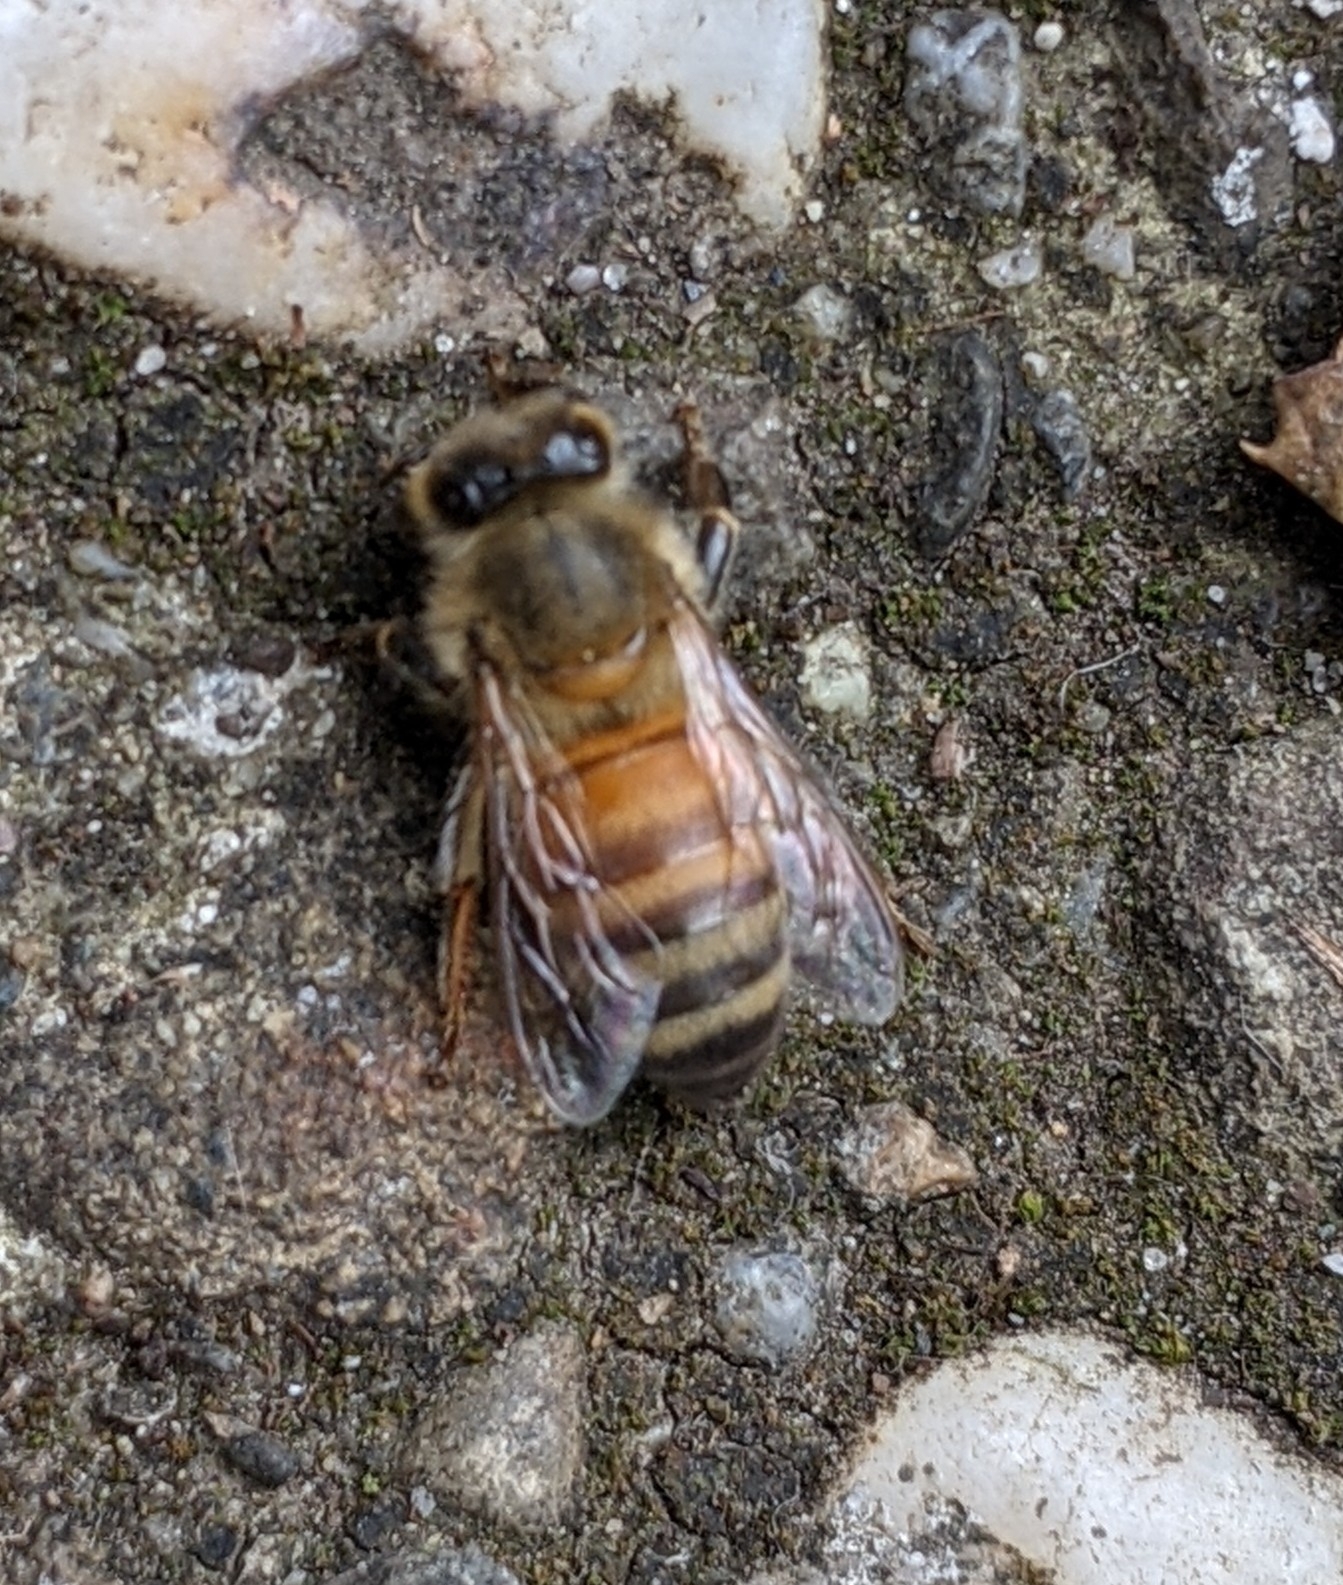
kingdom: Animalia
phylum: Arthropoda
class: Insecta
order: Hymenoptera
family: Apidae
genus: Apis
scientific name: Apis mellifera
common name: Honey bee
